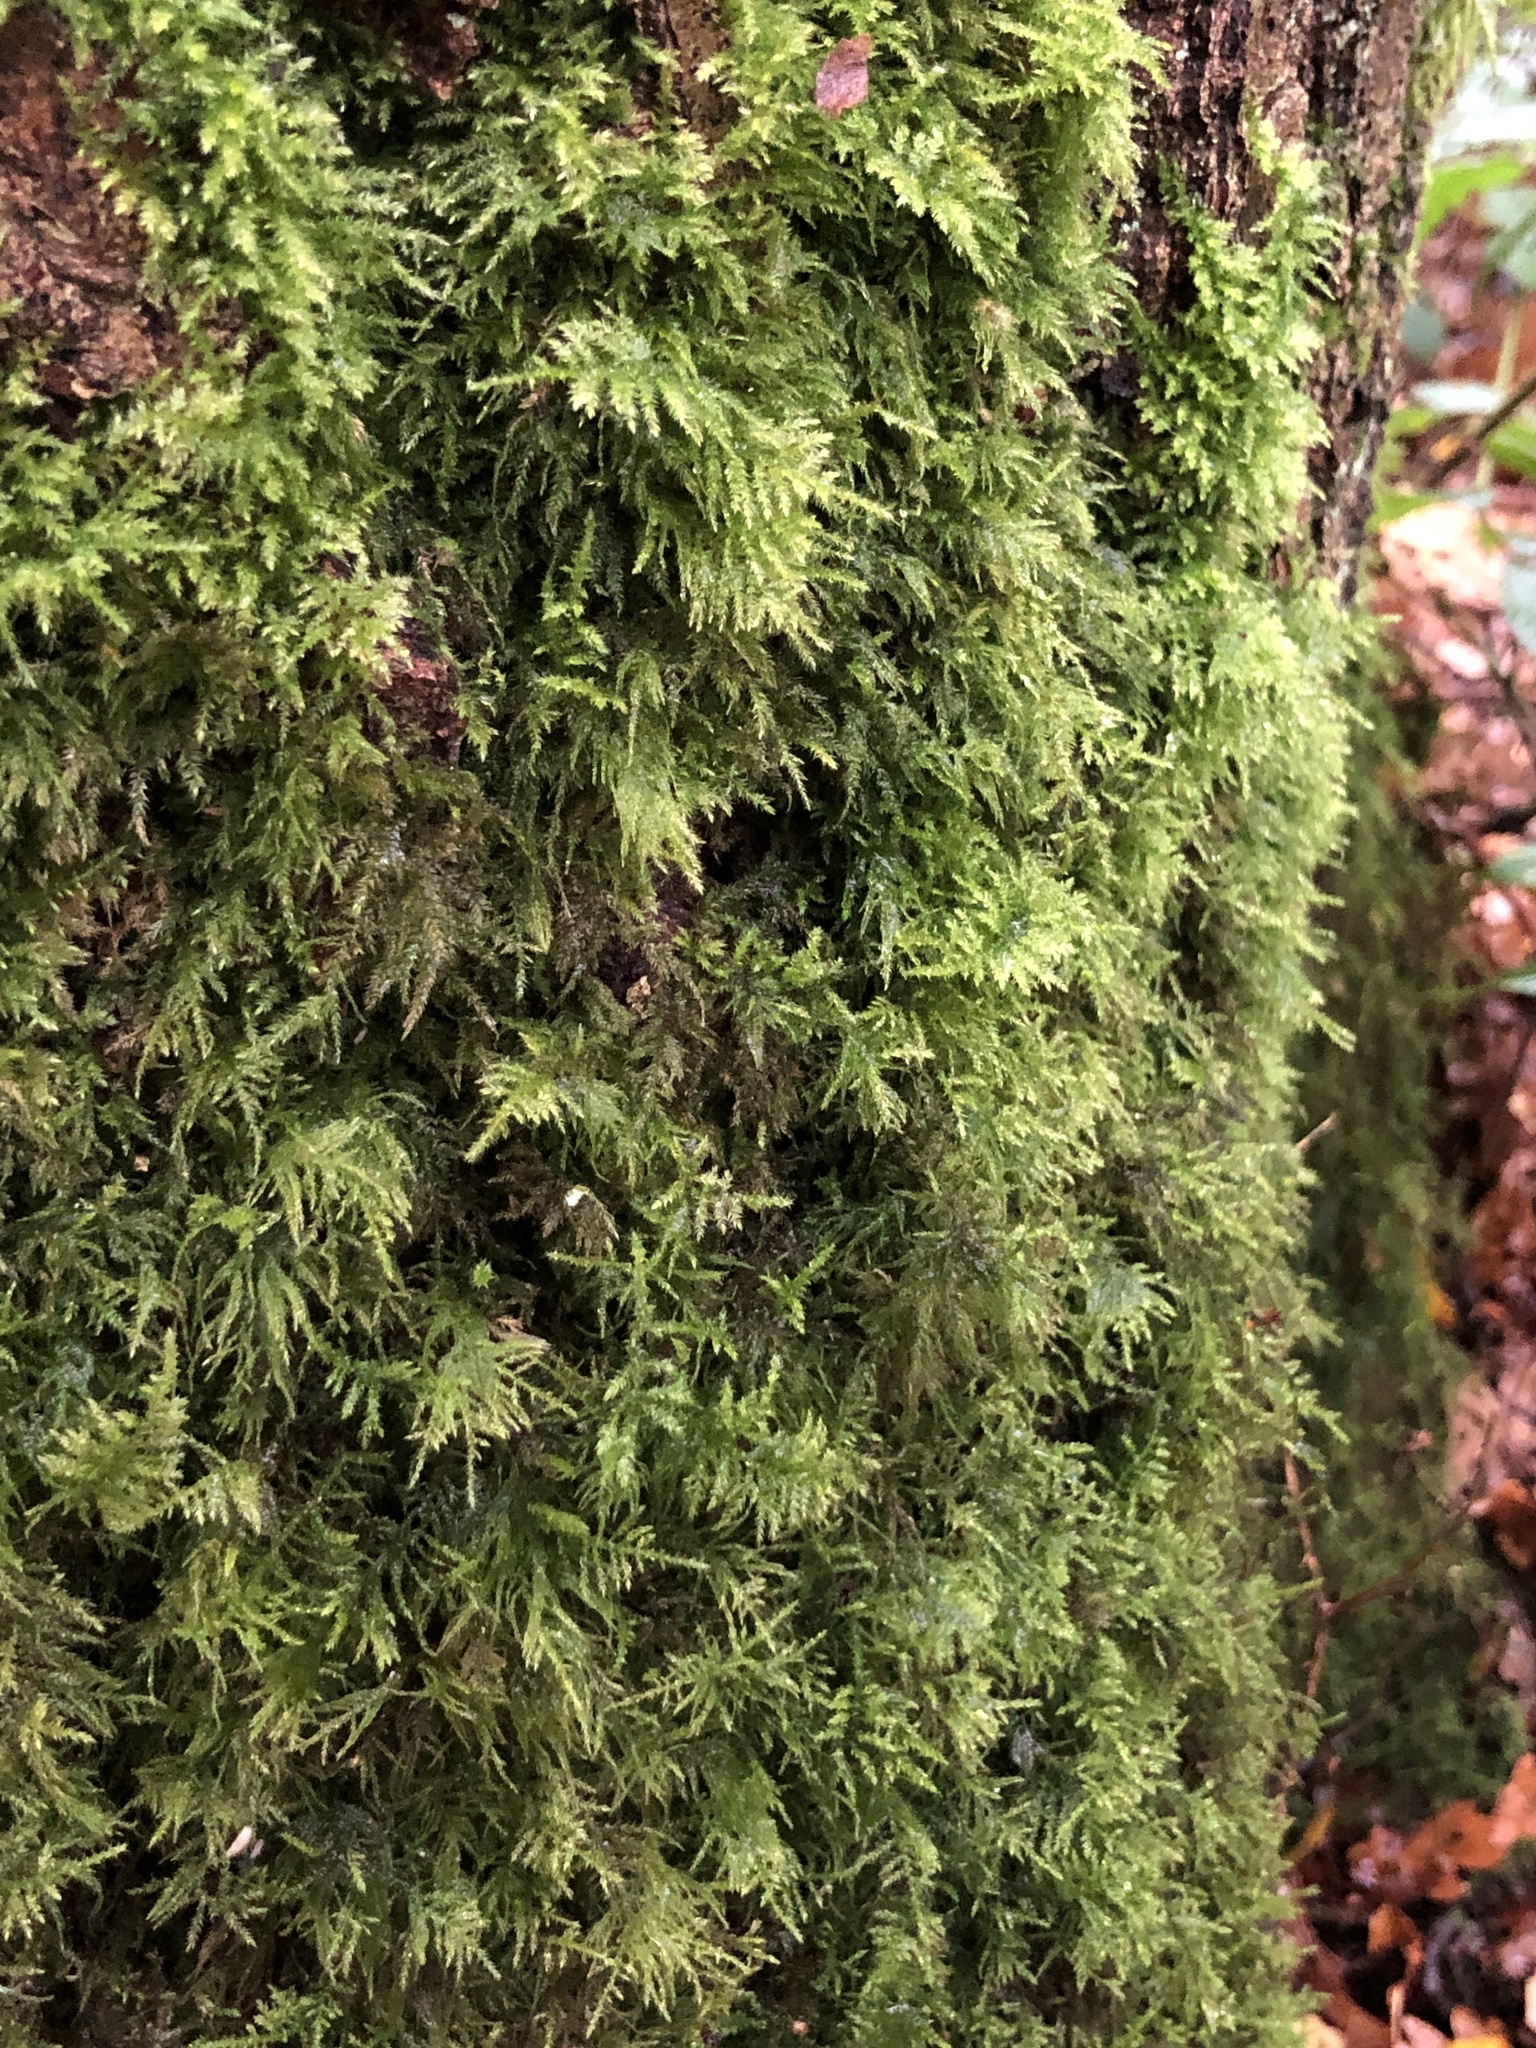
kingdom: Plantae
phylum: Bryophyta
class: Bryopsida
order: Hypnales
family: Brachytheciaceae
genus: Kindbergia
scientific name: Kindbergia praelonga
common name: Slender beaked moss
